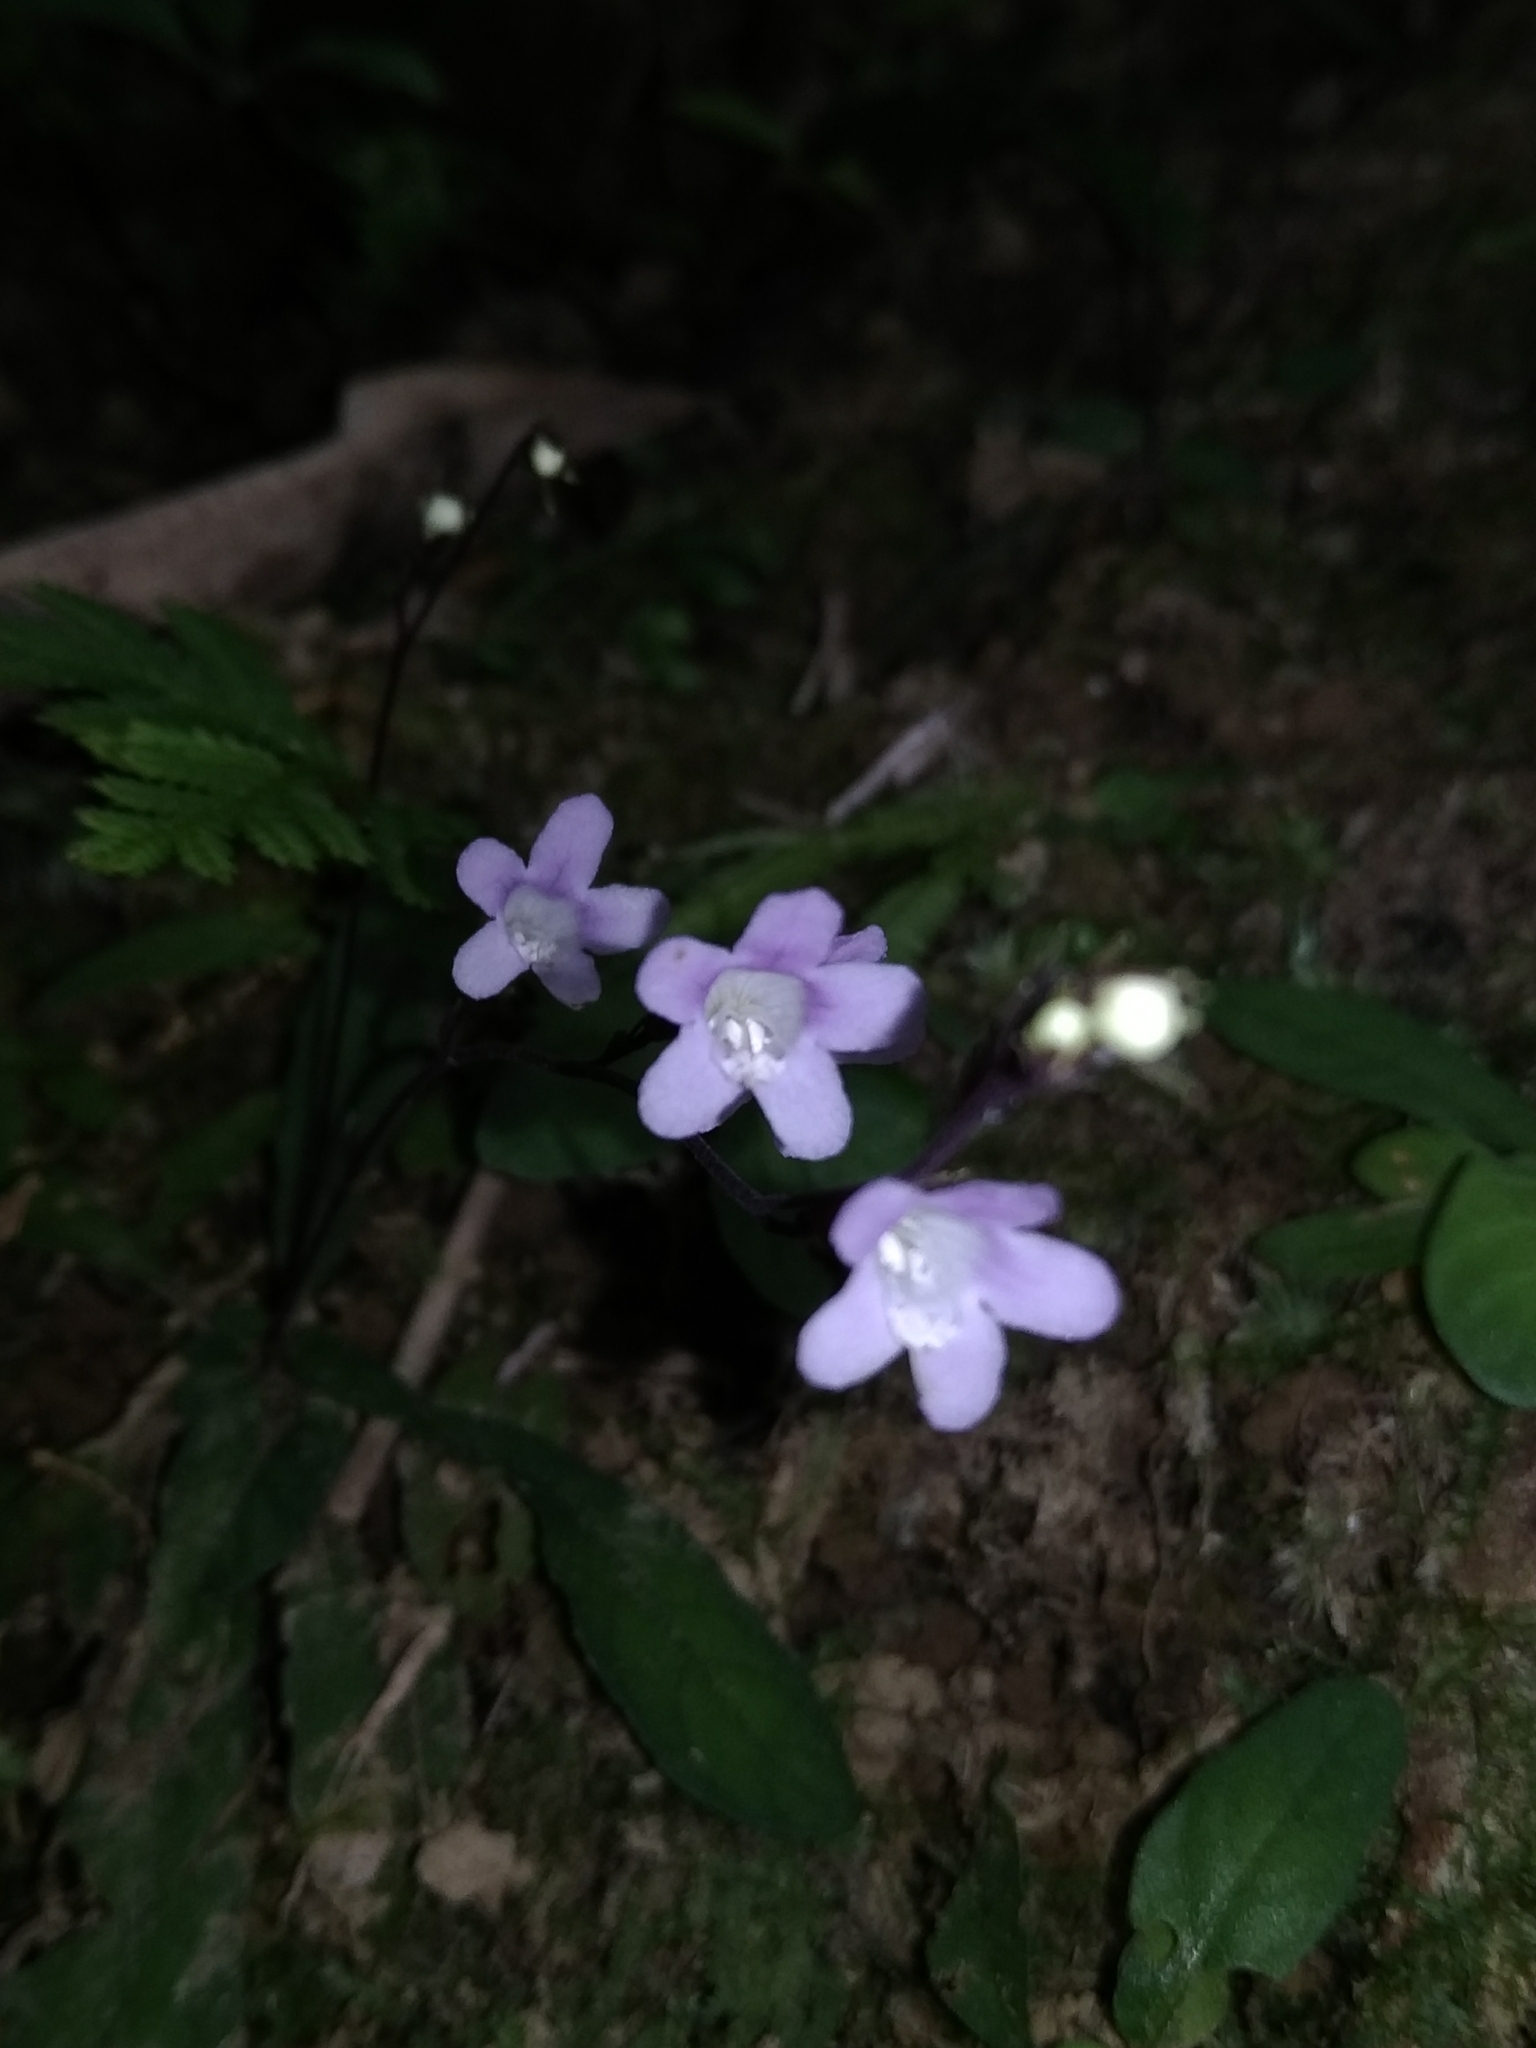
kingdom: Plantae
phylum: Tracheophyta
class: Magnoliopsida
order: Lamiales
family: Acanthaceae
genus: Staurogyne
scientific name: Staurogyne concinnula
